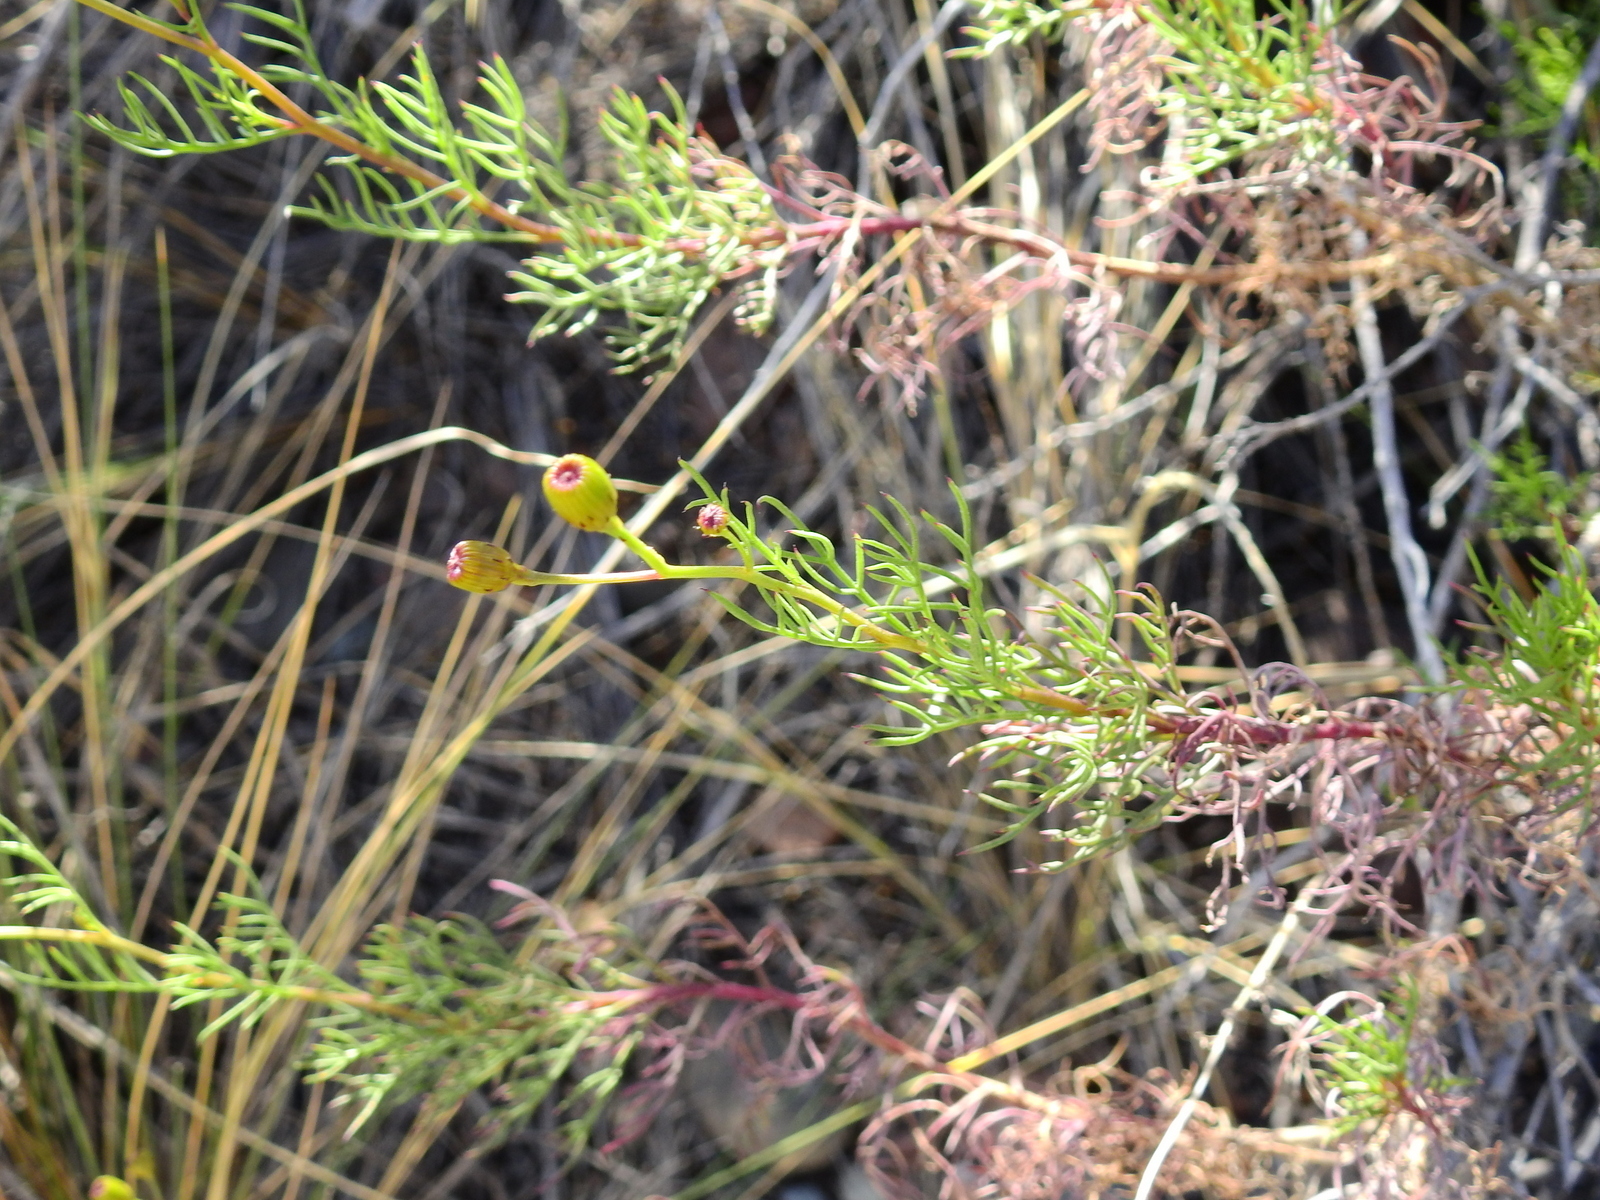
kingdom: Plantae
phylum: Tracheophyta
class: Magnoliopsida
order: Asterales
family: Asteraceae
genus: Senecio
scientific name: Senecio subulatus
